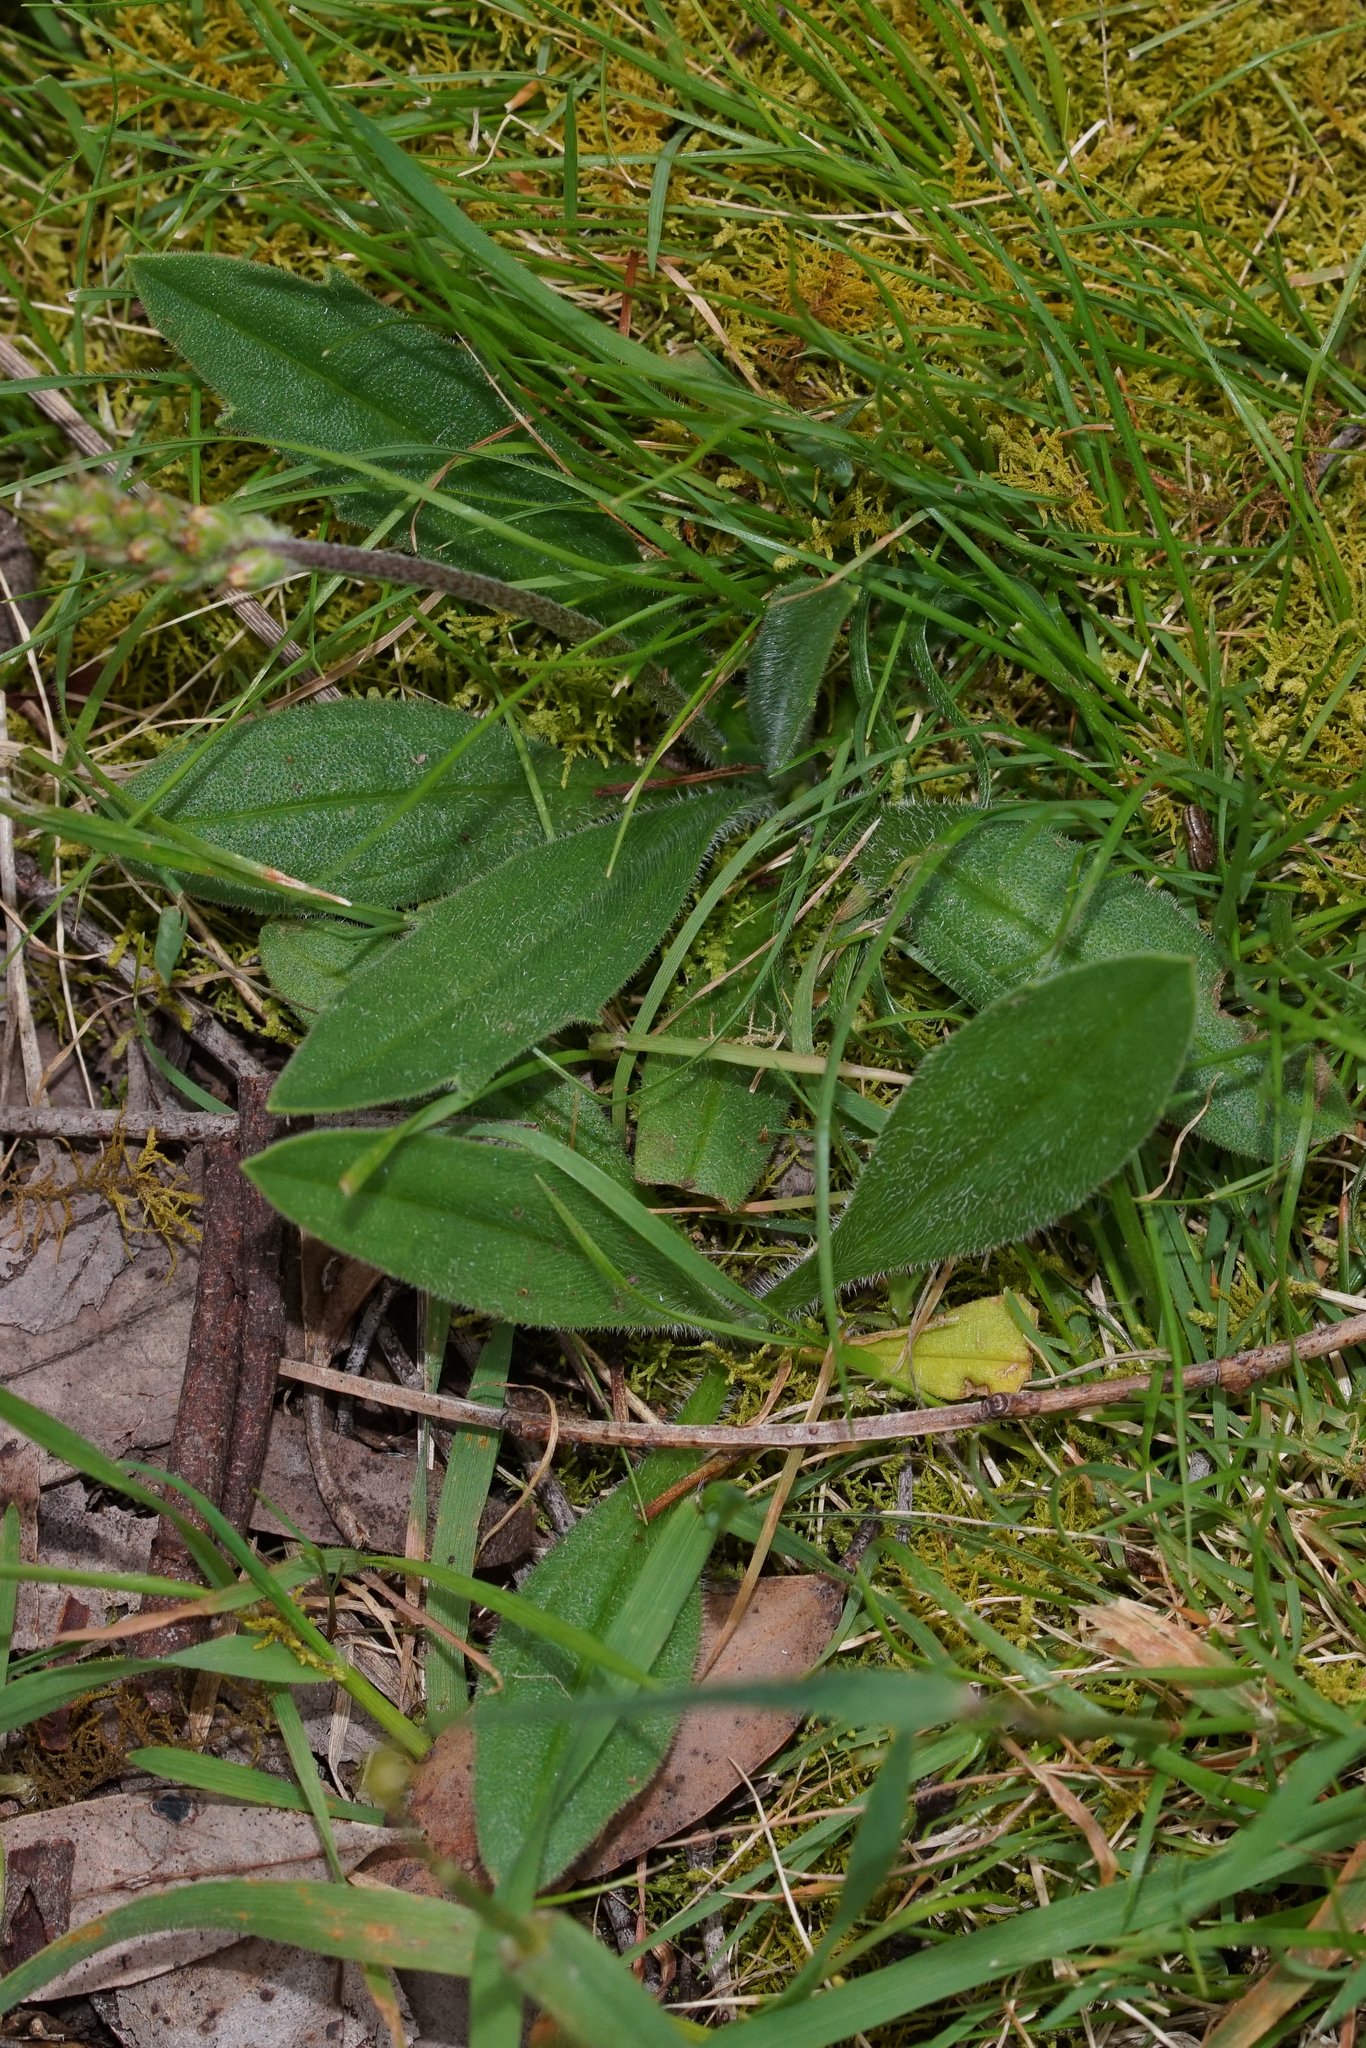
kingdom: Plantae
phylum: Tracheophyta
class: Magnoliopsida
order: Lamiales
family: Plantaginaceae
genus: Plantago
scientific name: Plantago varia
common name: Variable plantain
